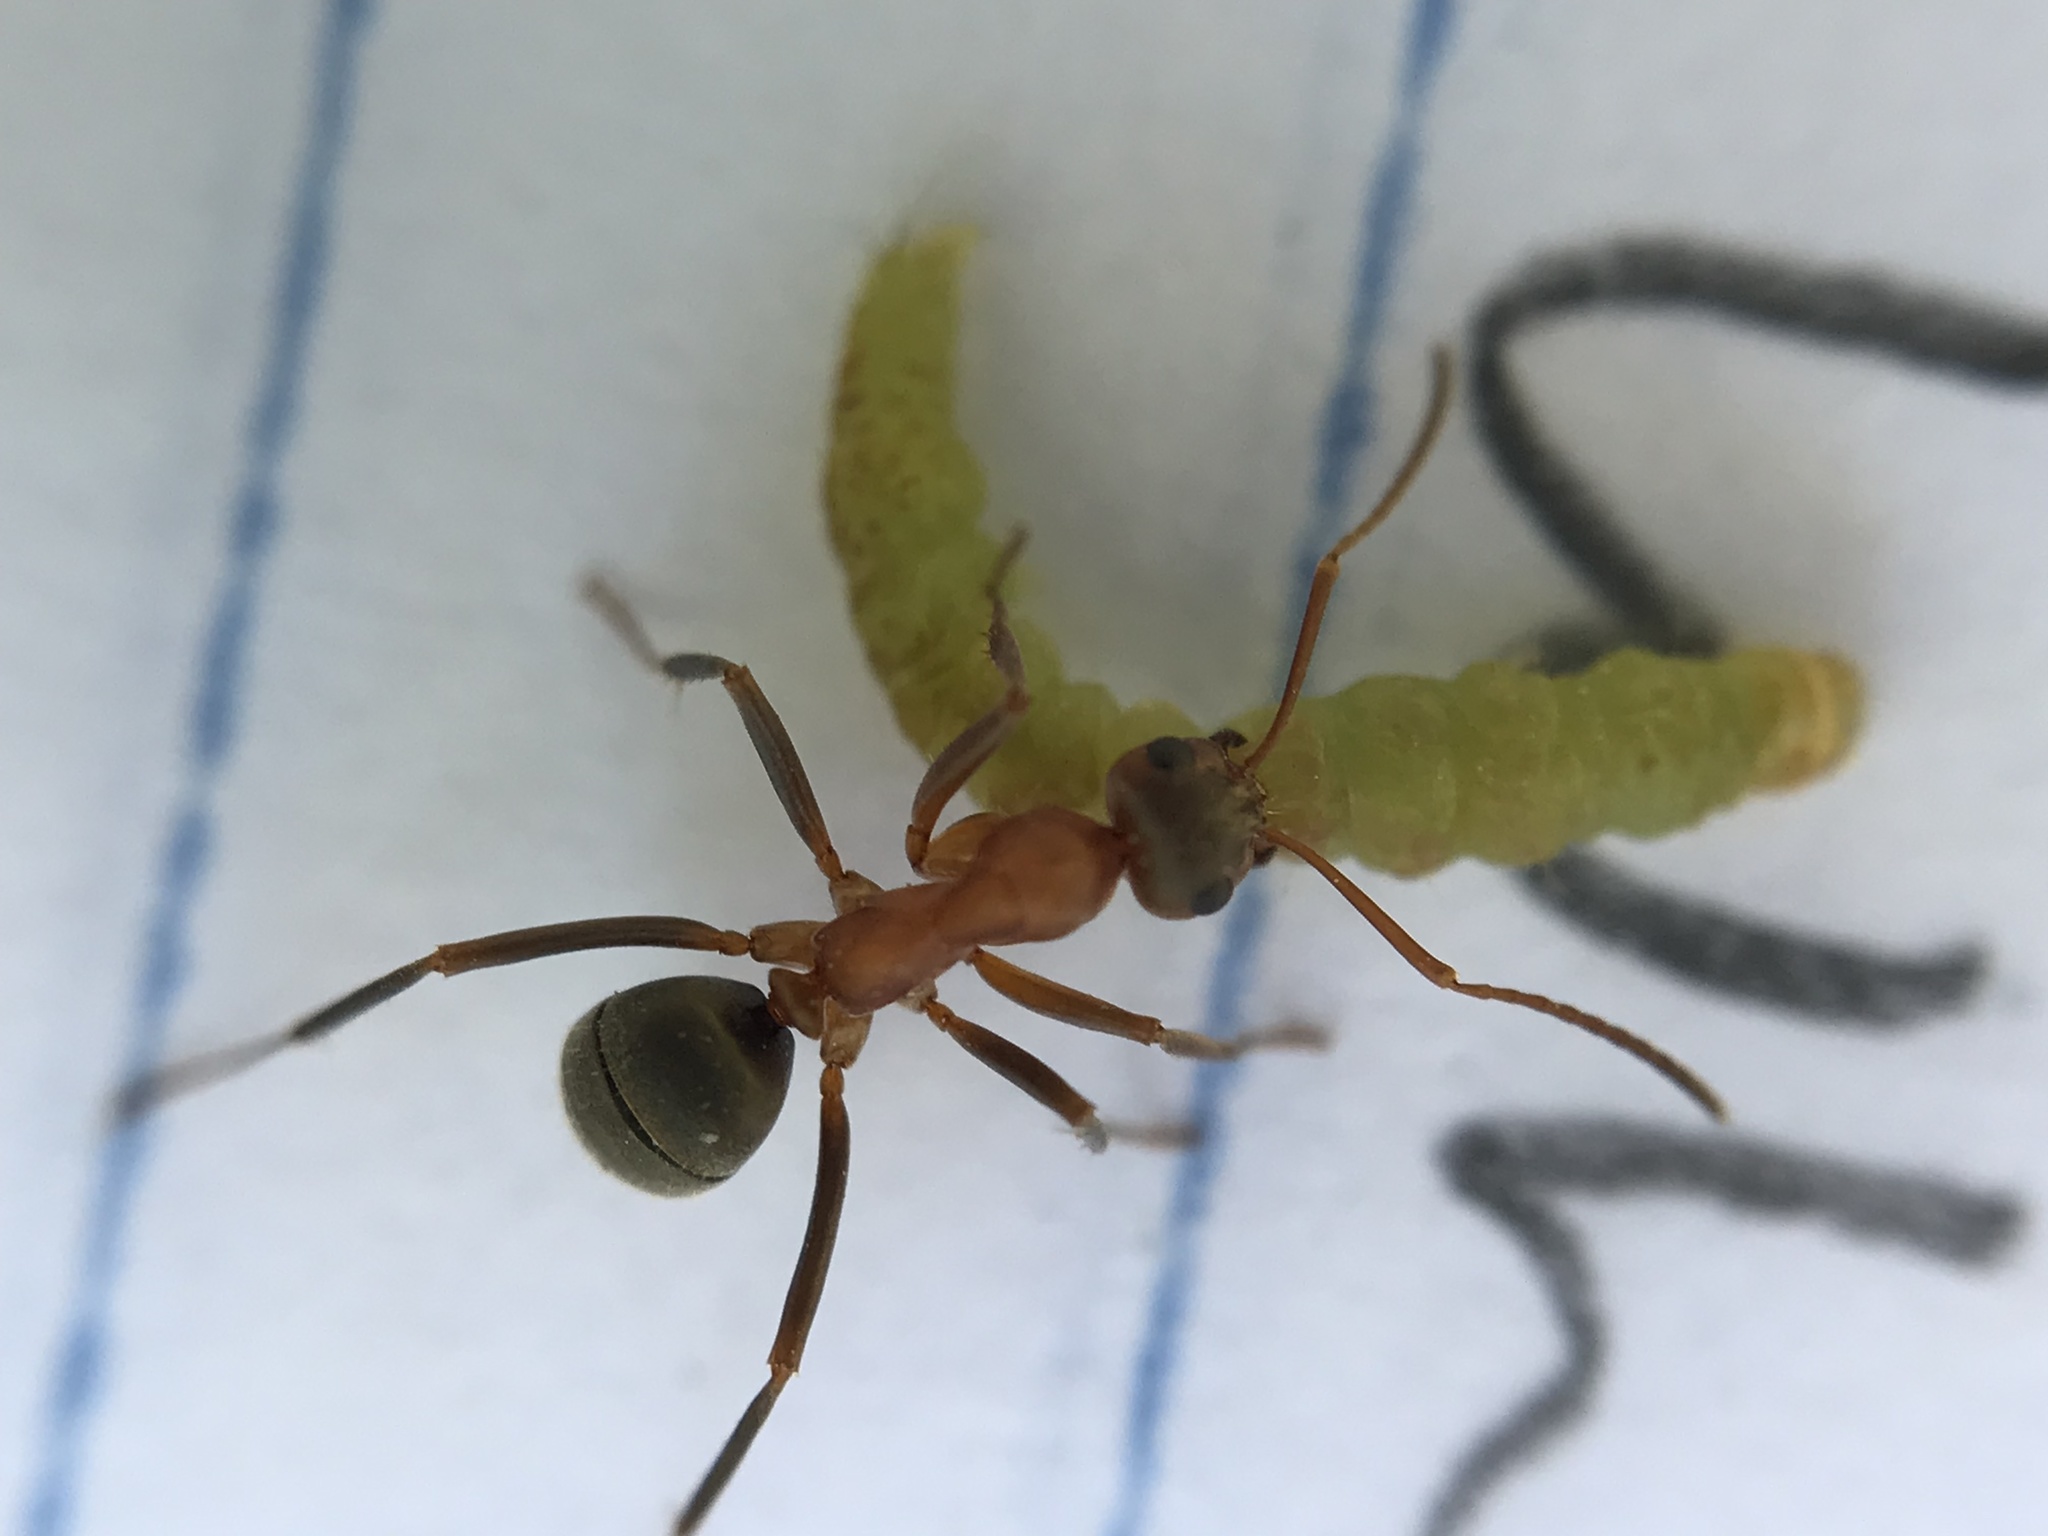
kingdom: Animalia
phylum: Arthropoda
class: Insecta
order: Hymenoptera
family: Formicidae
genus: Formica
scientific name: Formica moki
